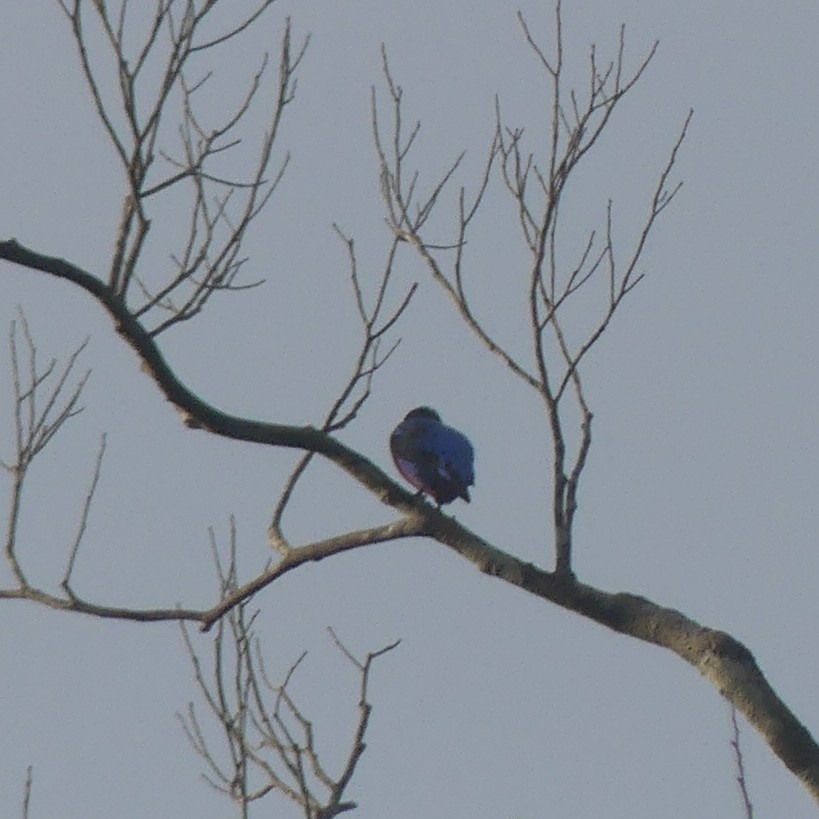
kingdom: Animalia
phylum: Chordata
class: Aves
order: Passeriformes
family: Cotingidae
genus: Cotinga
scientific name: Cotinga cotinga
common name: Purple-breasted cotinga
